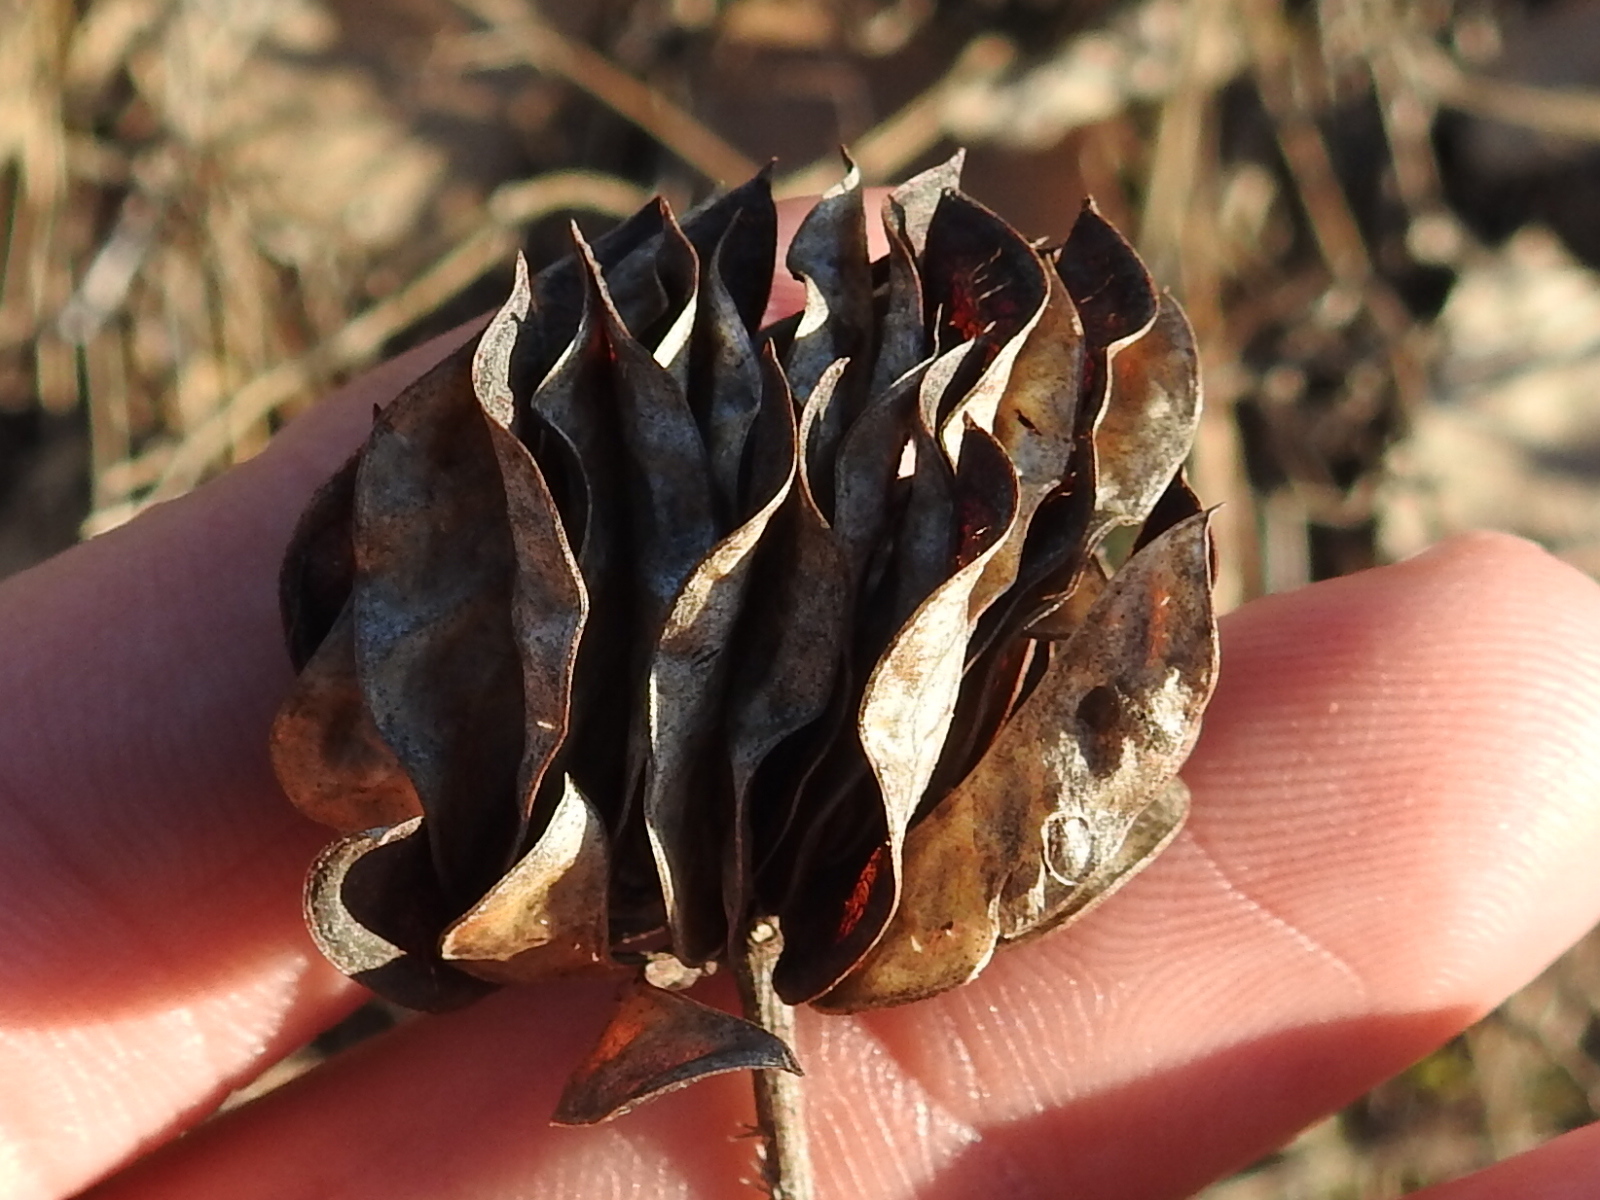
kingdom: Plantae
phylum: Tracheophyta
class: Magnoliopsida
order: Fabales
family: Fabaceae
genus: Desmanthus
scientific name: Desmanthus illinoensis
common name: Illinois bundle-flower
